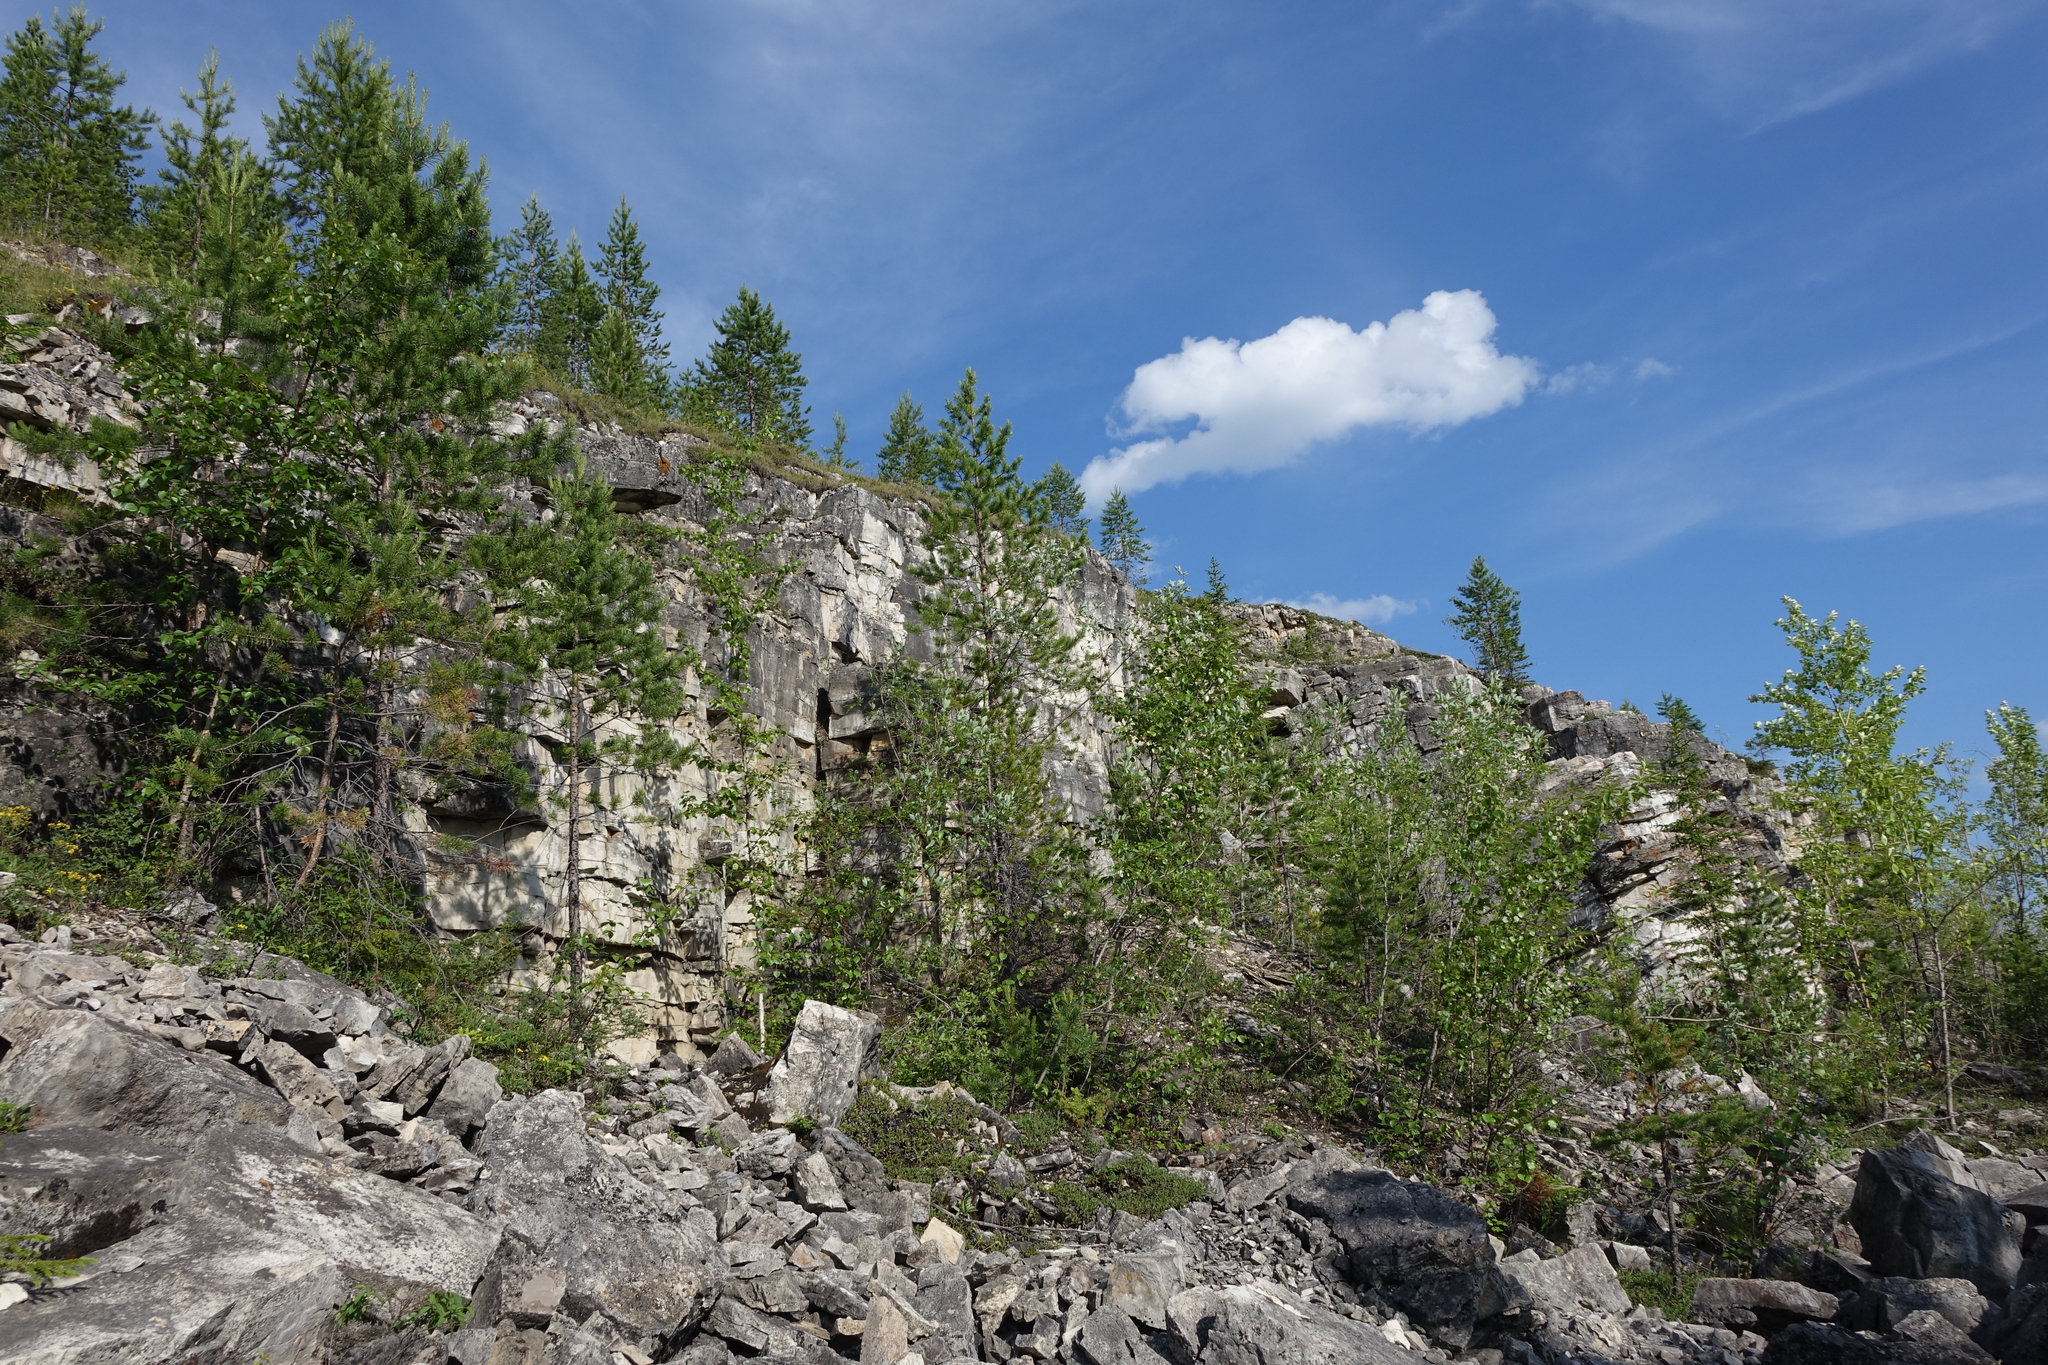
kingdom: Plantae
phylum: Tracheophyta
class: Pinopsida
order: Pinales
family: Pinaceae
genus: Pinus
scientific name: Pinus sylvestris
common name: Scots pine
